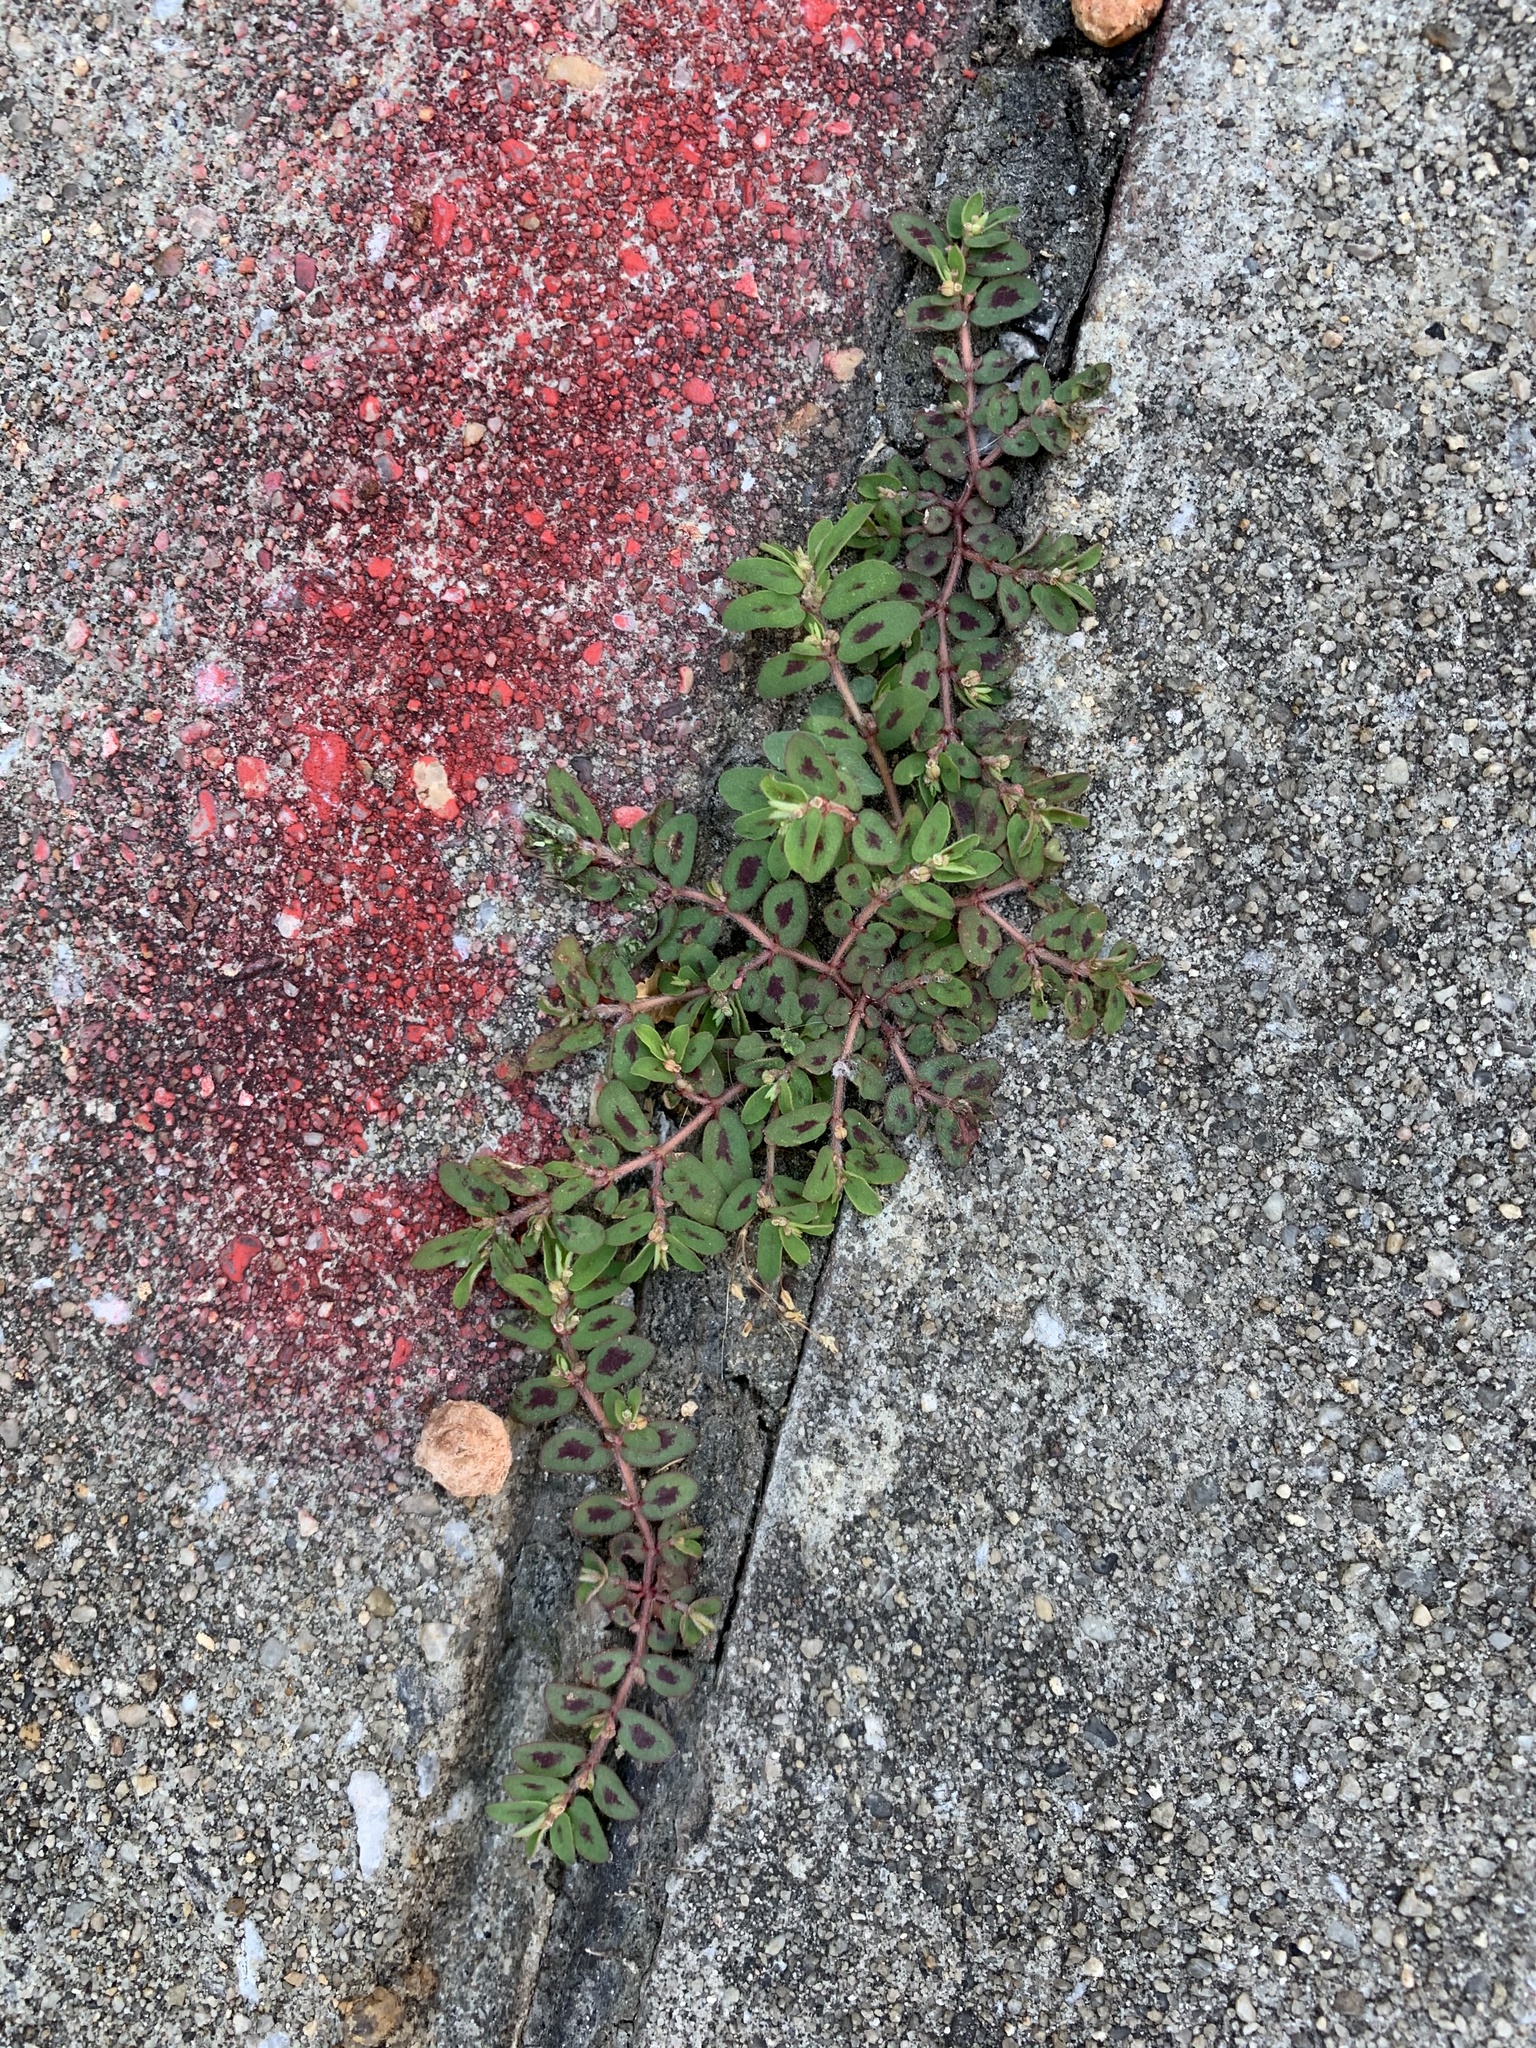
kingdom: Plantae
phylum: Tracheophyta
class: Magnoliopsida
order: Malpighiales
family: Euphorbiaceae
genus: Euphorbia
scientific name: Euphorbia maculata
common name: Spotted spurge
